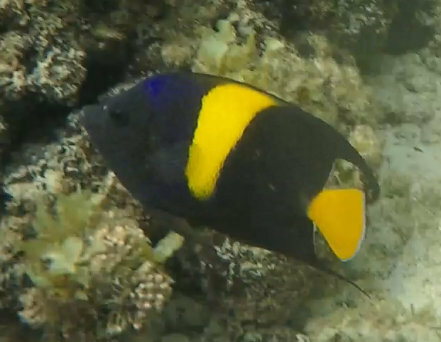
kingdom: Animalia
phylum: Chordata
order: Perciformes
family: Pomacanthidae
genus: Pomacanthus
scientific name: Pomacanthus asfur
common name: Arabian angelfish
